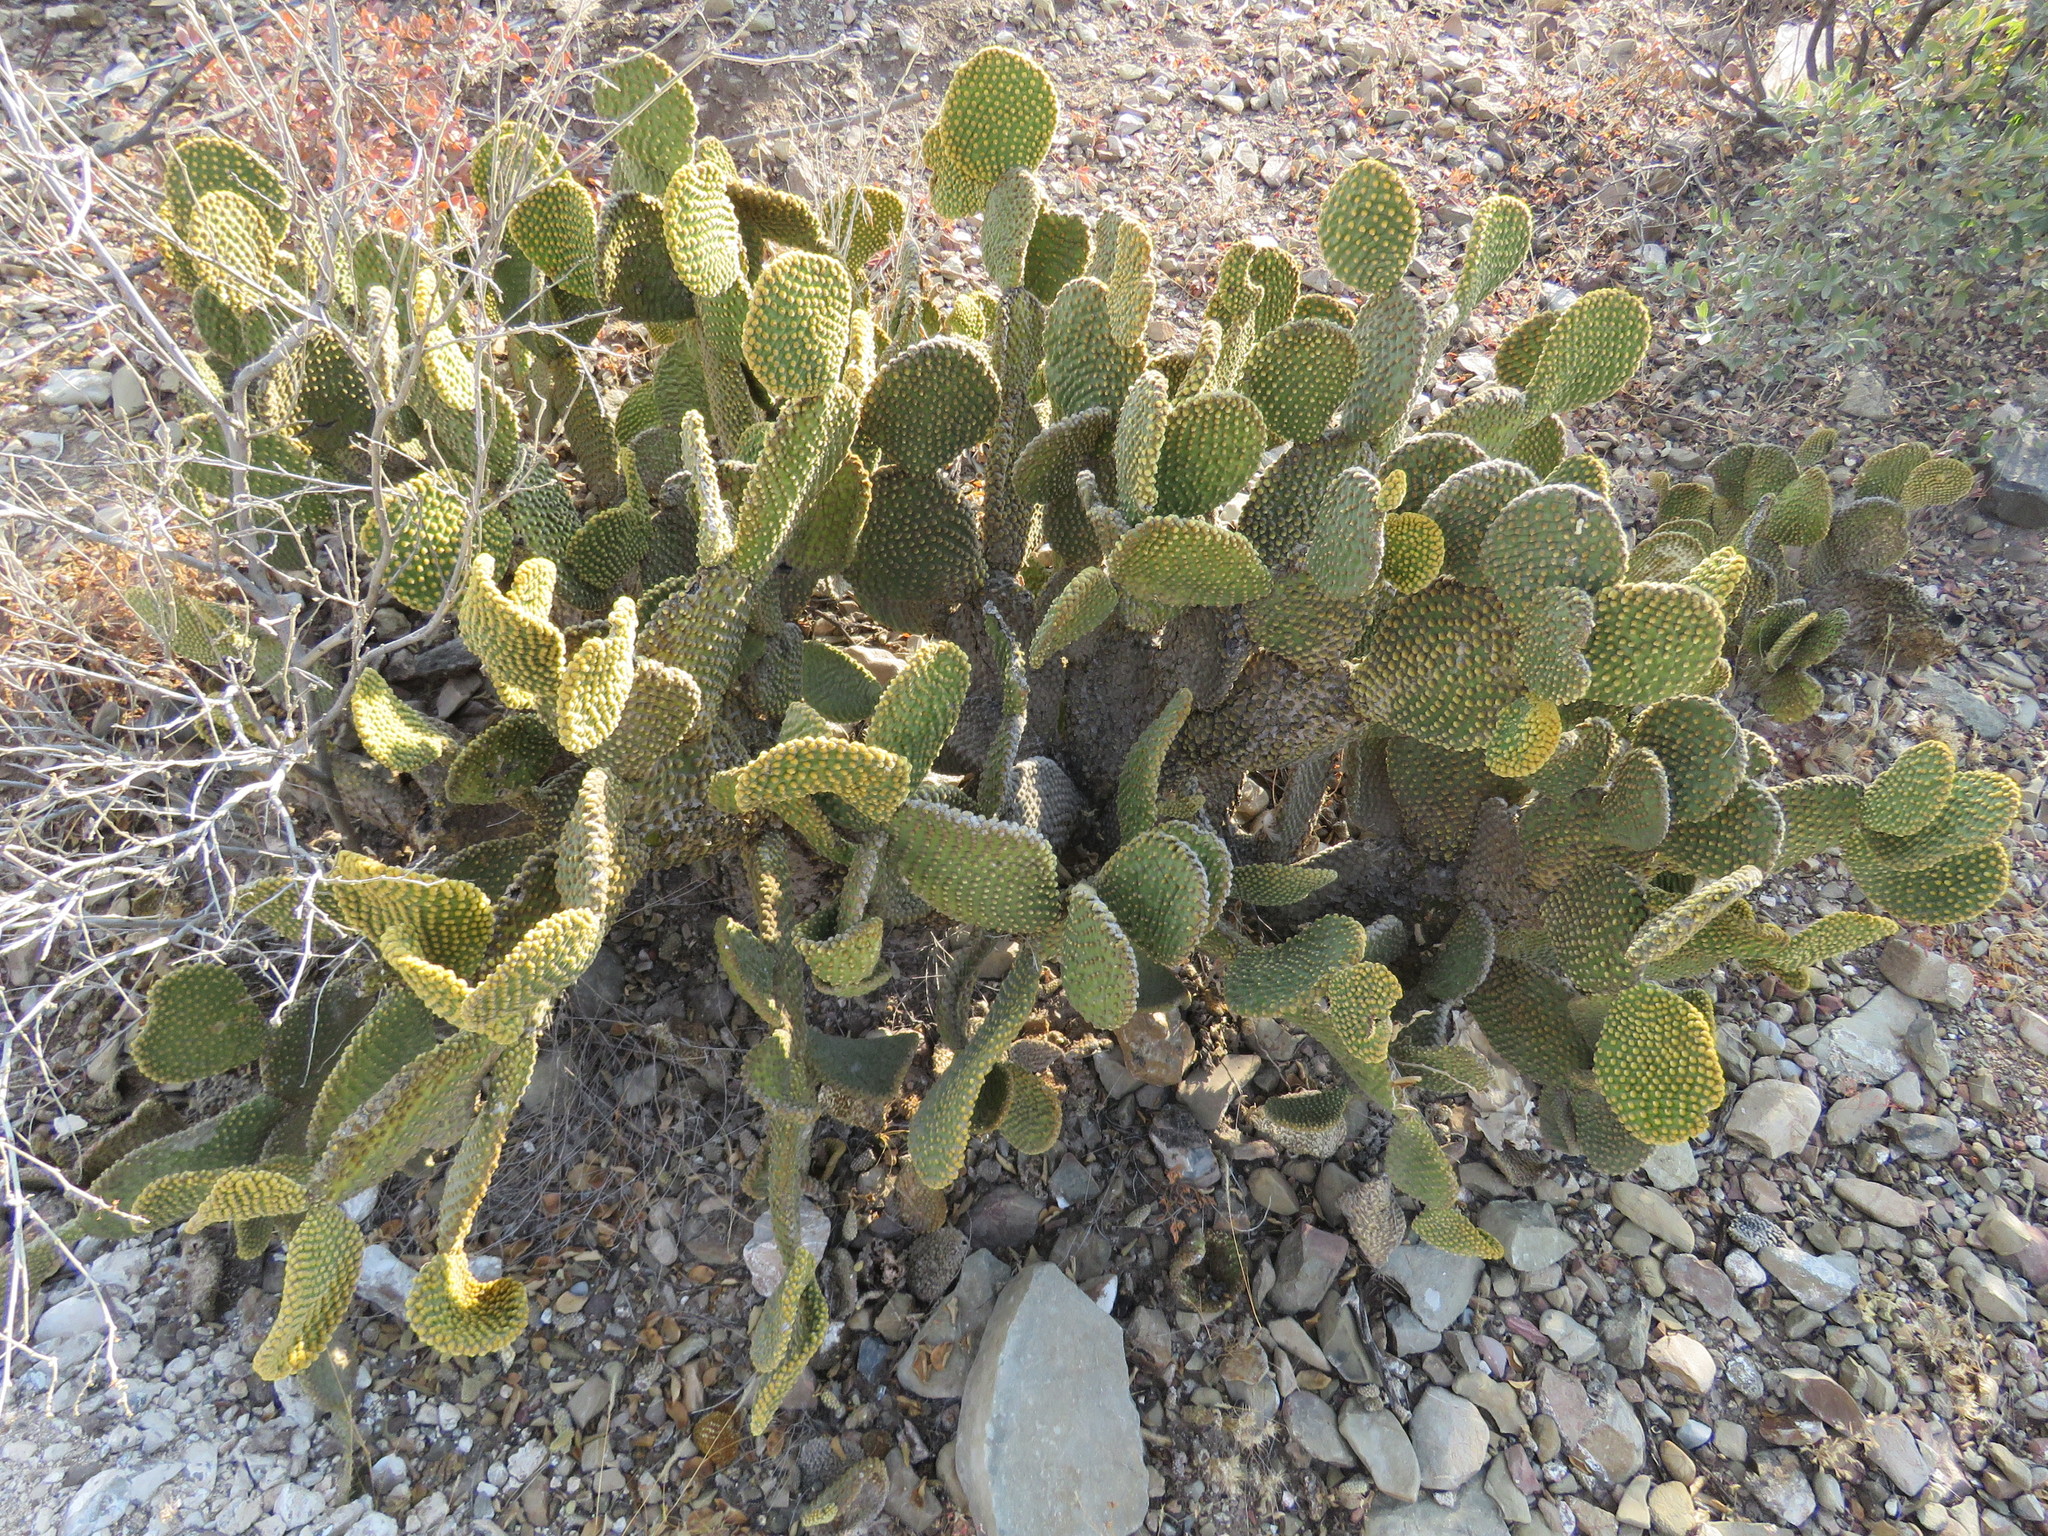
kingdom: Plantae
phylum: Tracheophyta
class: Magnoliopsida
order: Caryophyllales
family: Cactaceae
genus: Opuntia
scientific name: Opuntia microdasys
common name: Angel's-wings
